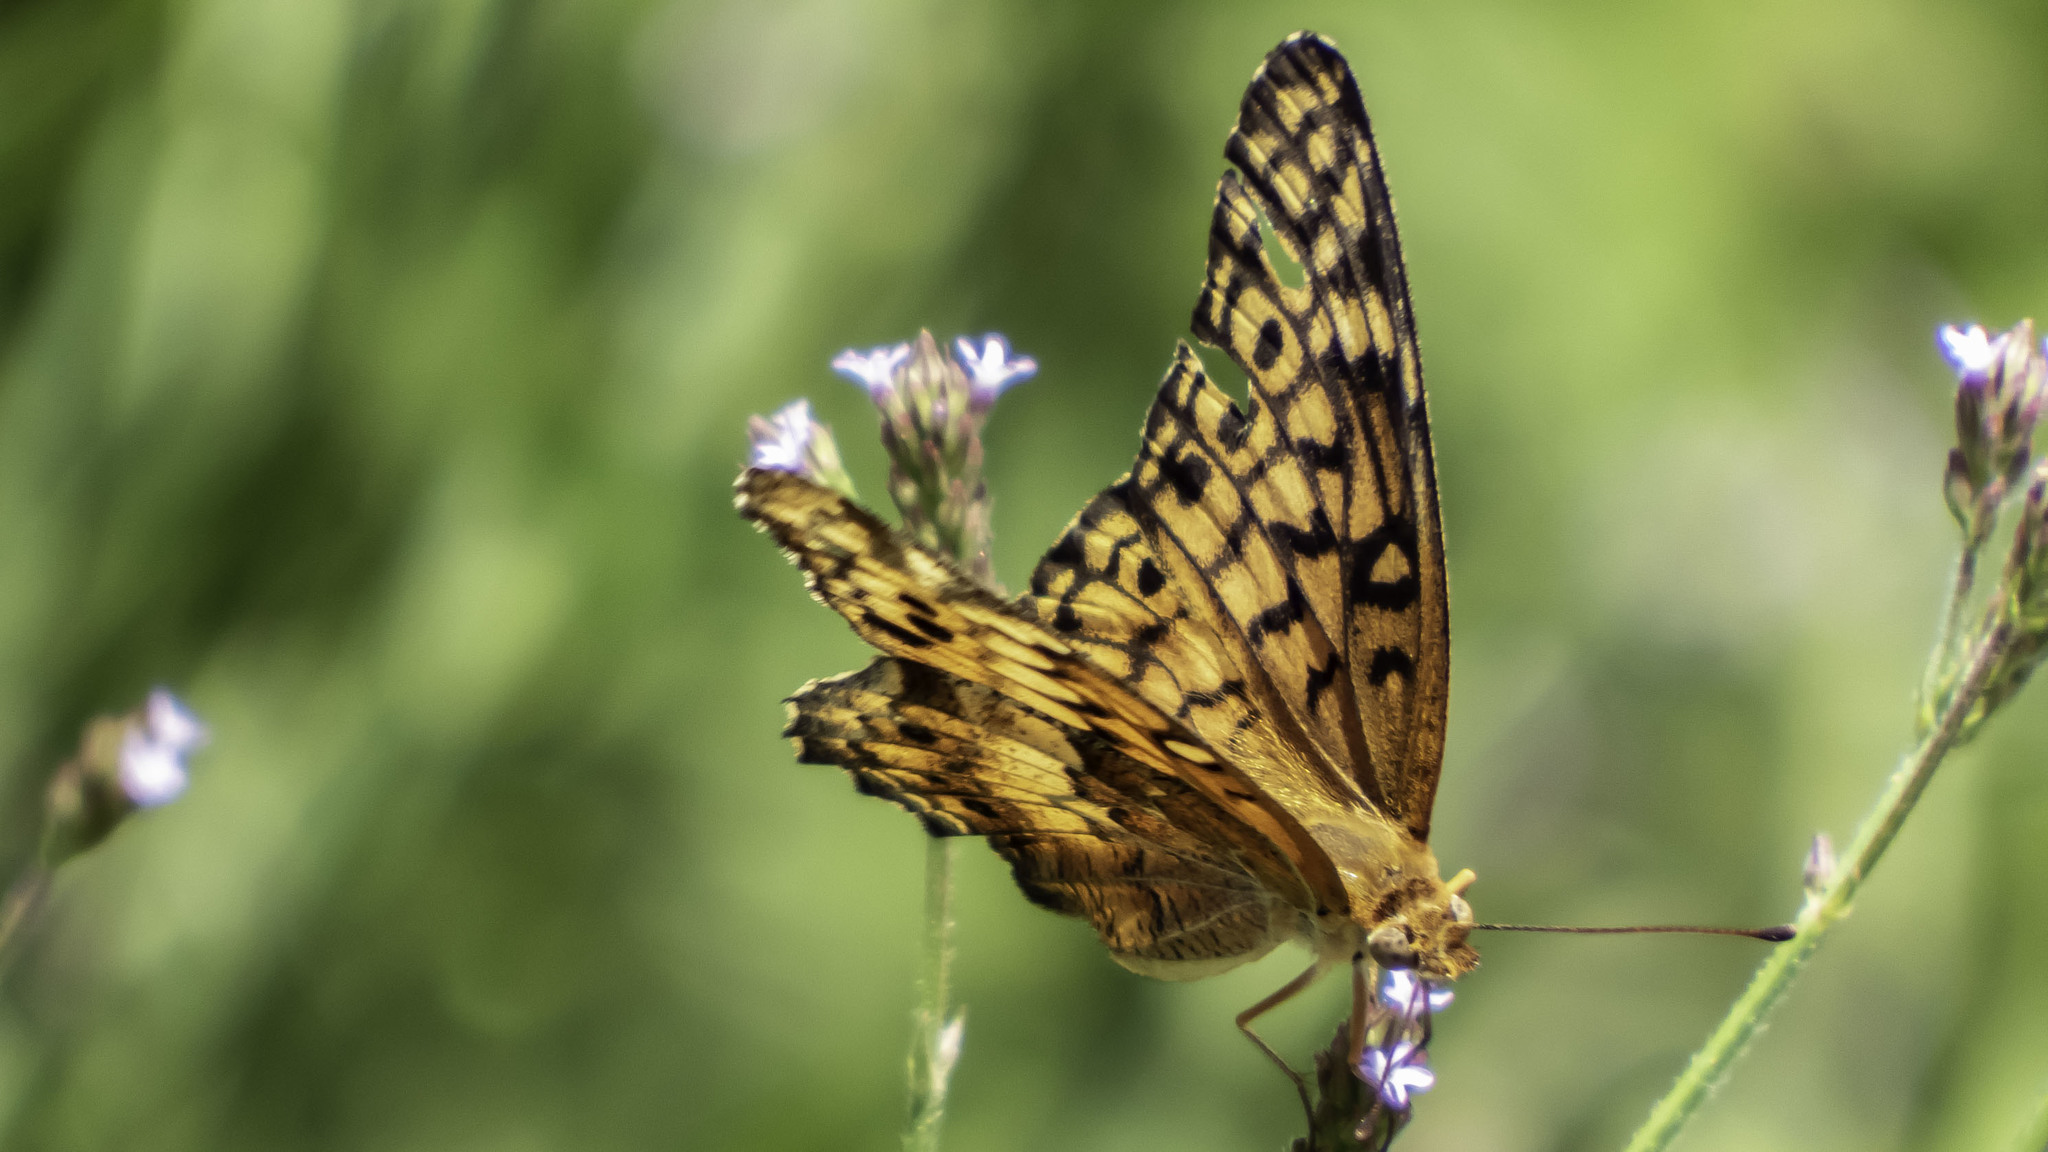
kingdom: Animalia
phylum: Arthropoda
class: Insecta
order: Lepidoptera
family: Nymphalidae
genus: Euptoieta
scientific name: Euptoieta claudia
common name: Variegated fritillary
